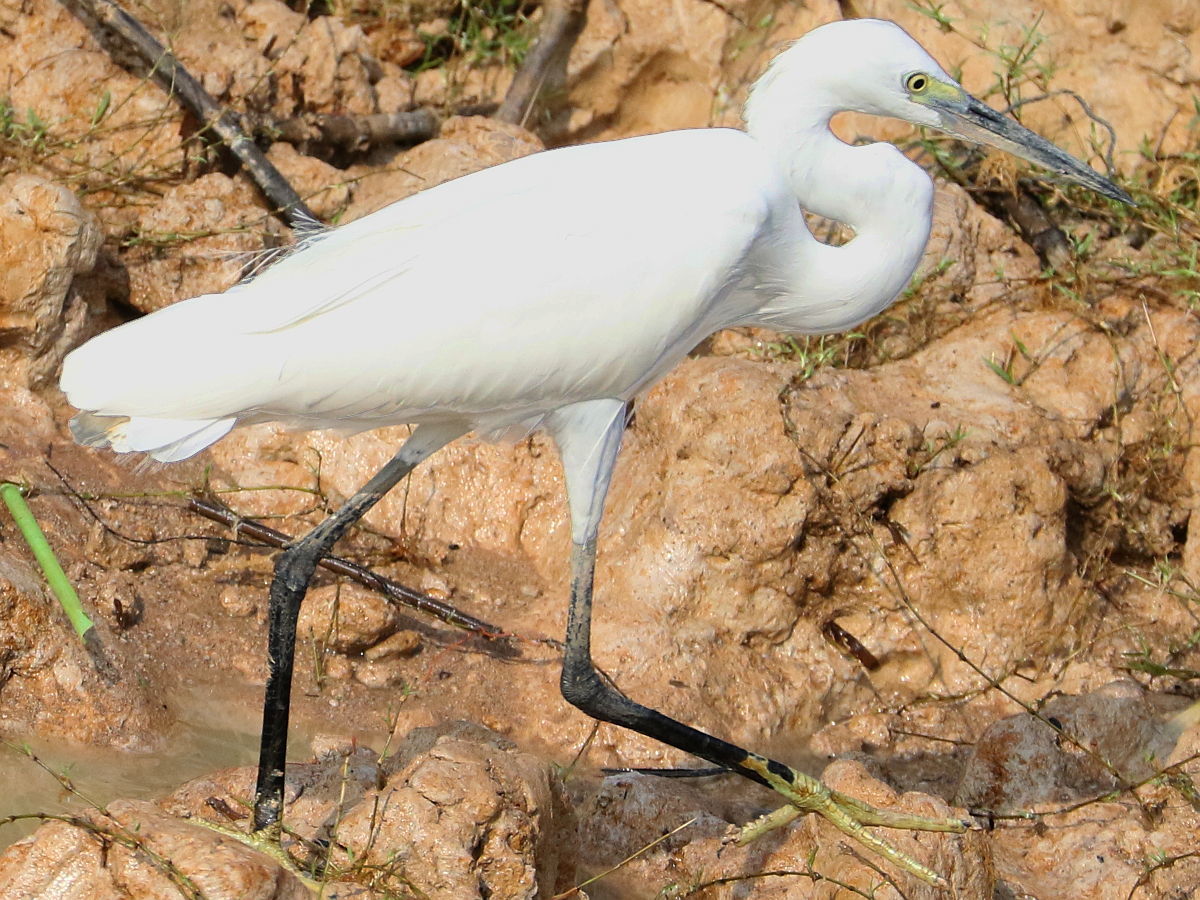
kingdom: Animalia
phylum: Chordata
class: Aves
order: Pelecaniformes
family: Ardeidae
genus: Egretta
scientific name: Egretta garzetta
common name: Little egret
